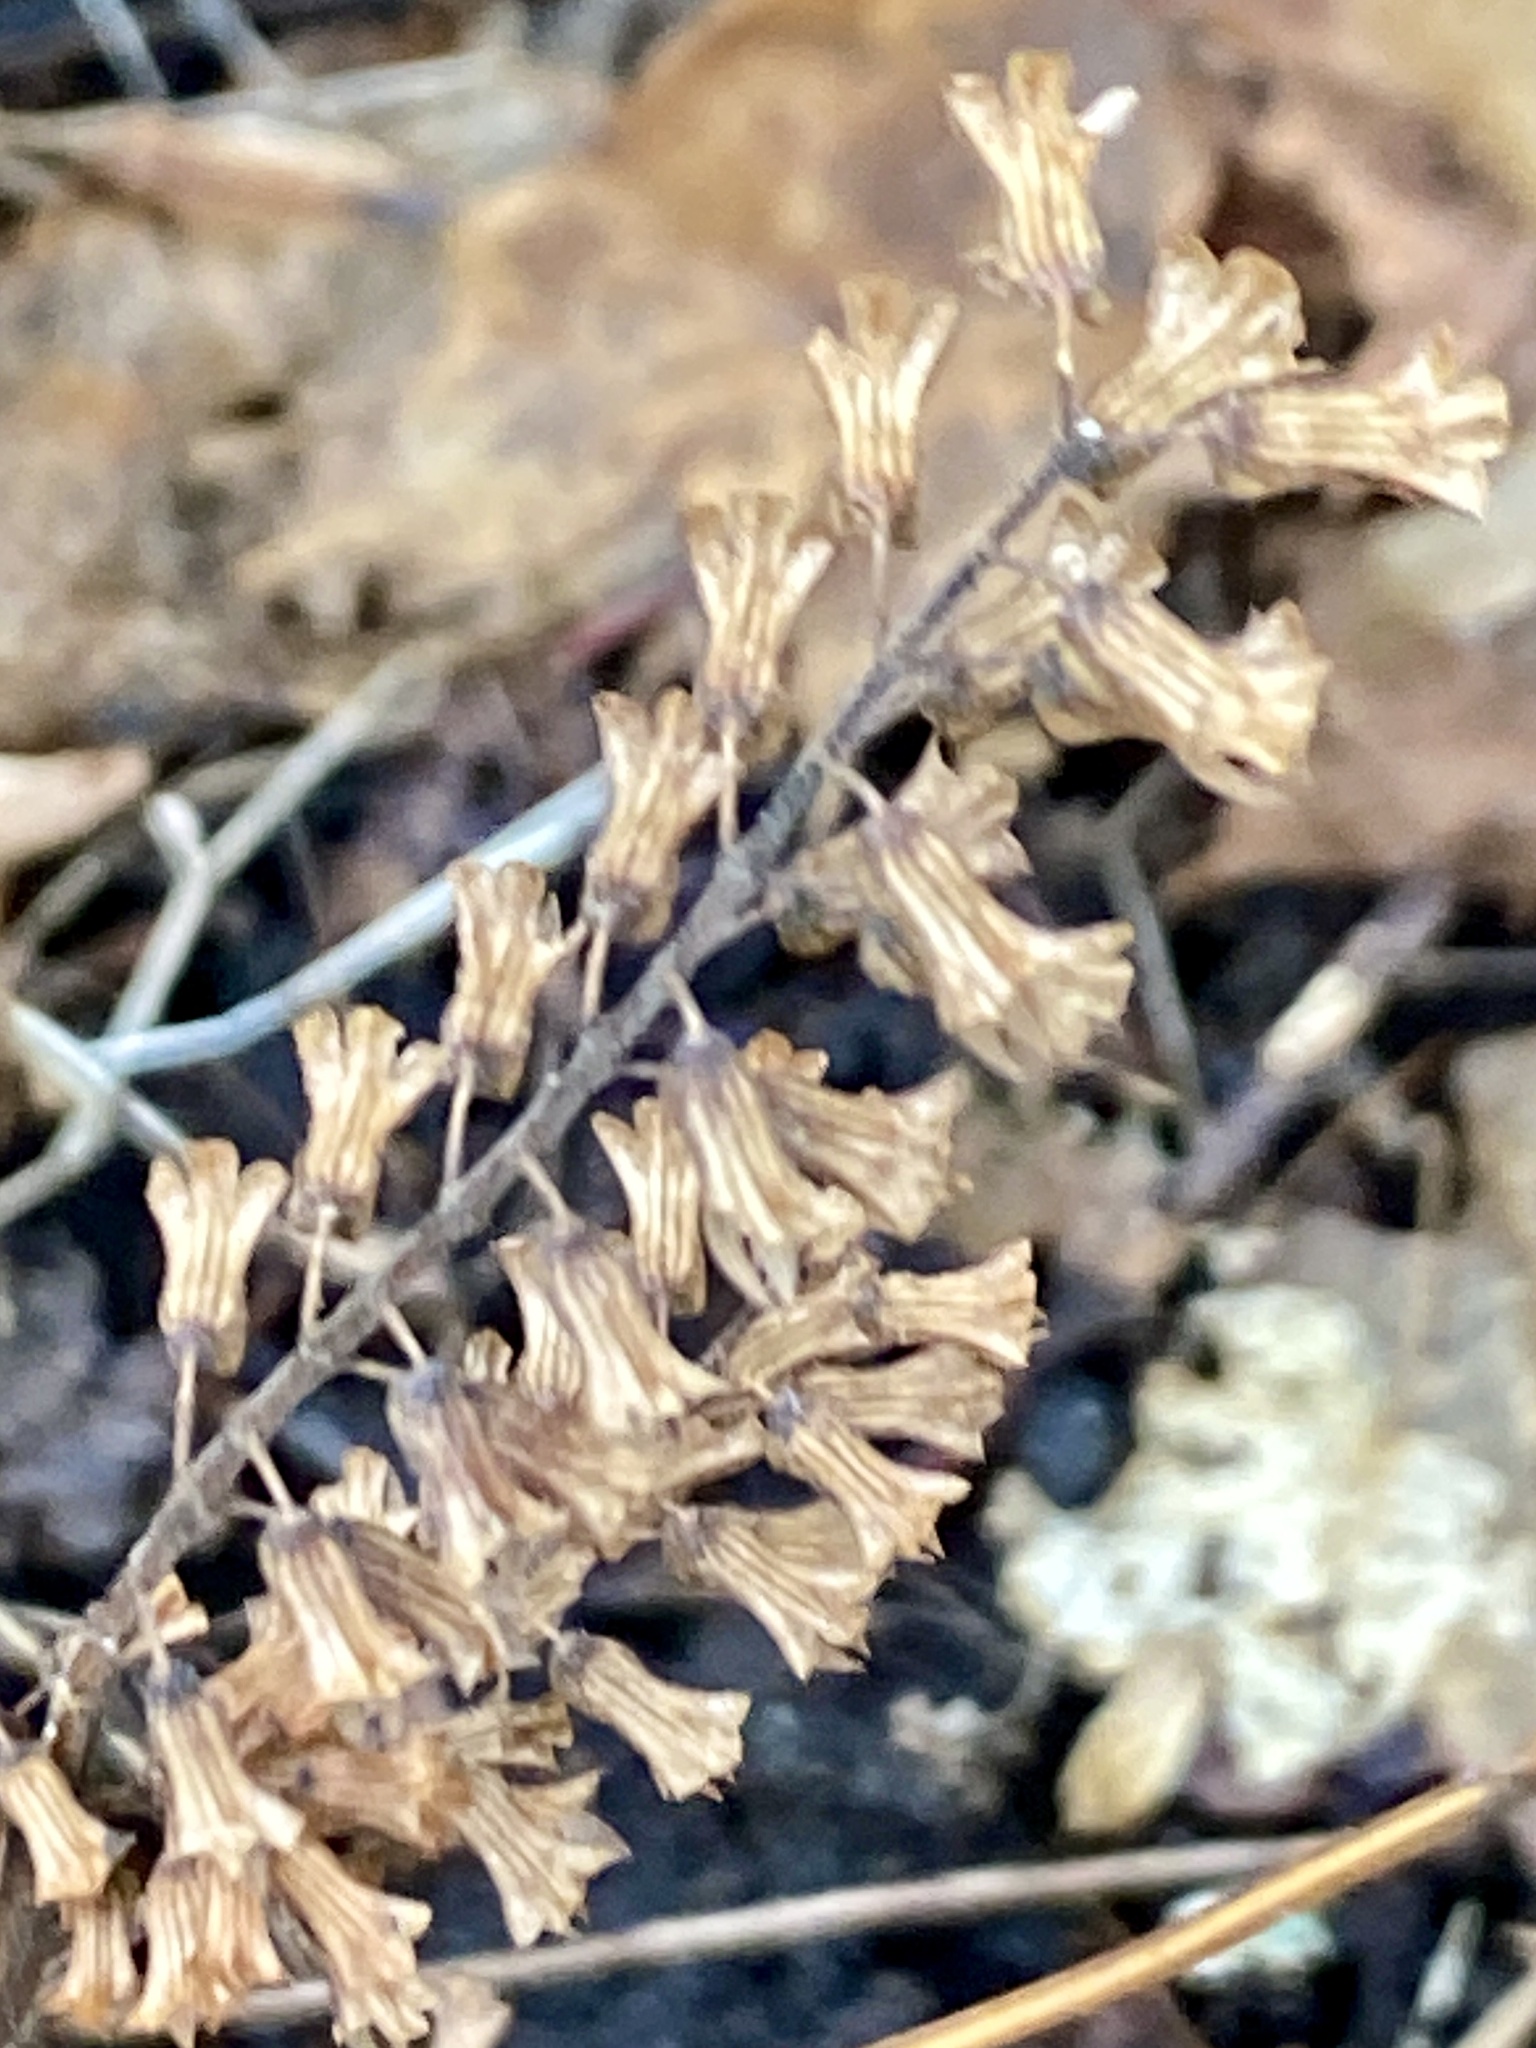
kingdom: Plantae
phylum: Tracheophyta
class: Magnoliopsida
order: Lamiales
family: Lamiaceae
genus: Perilla
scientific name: Perilla frutescens
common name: Perilla
